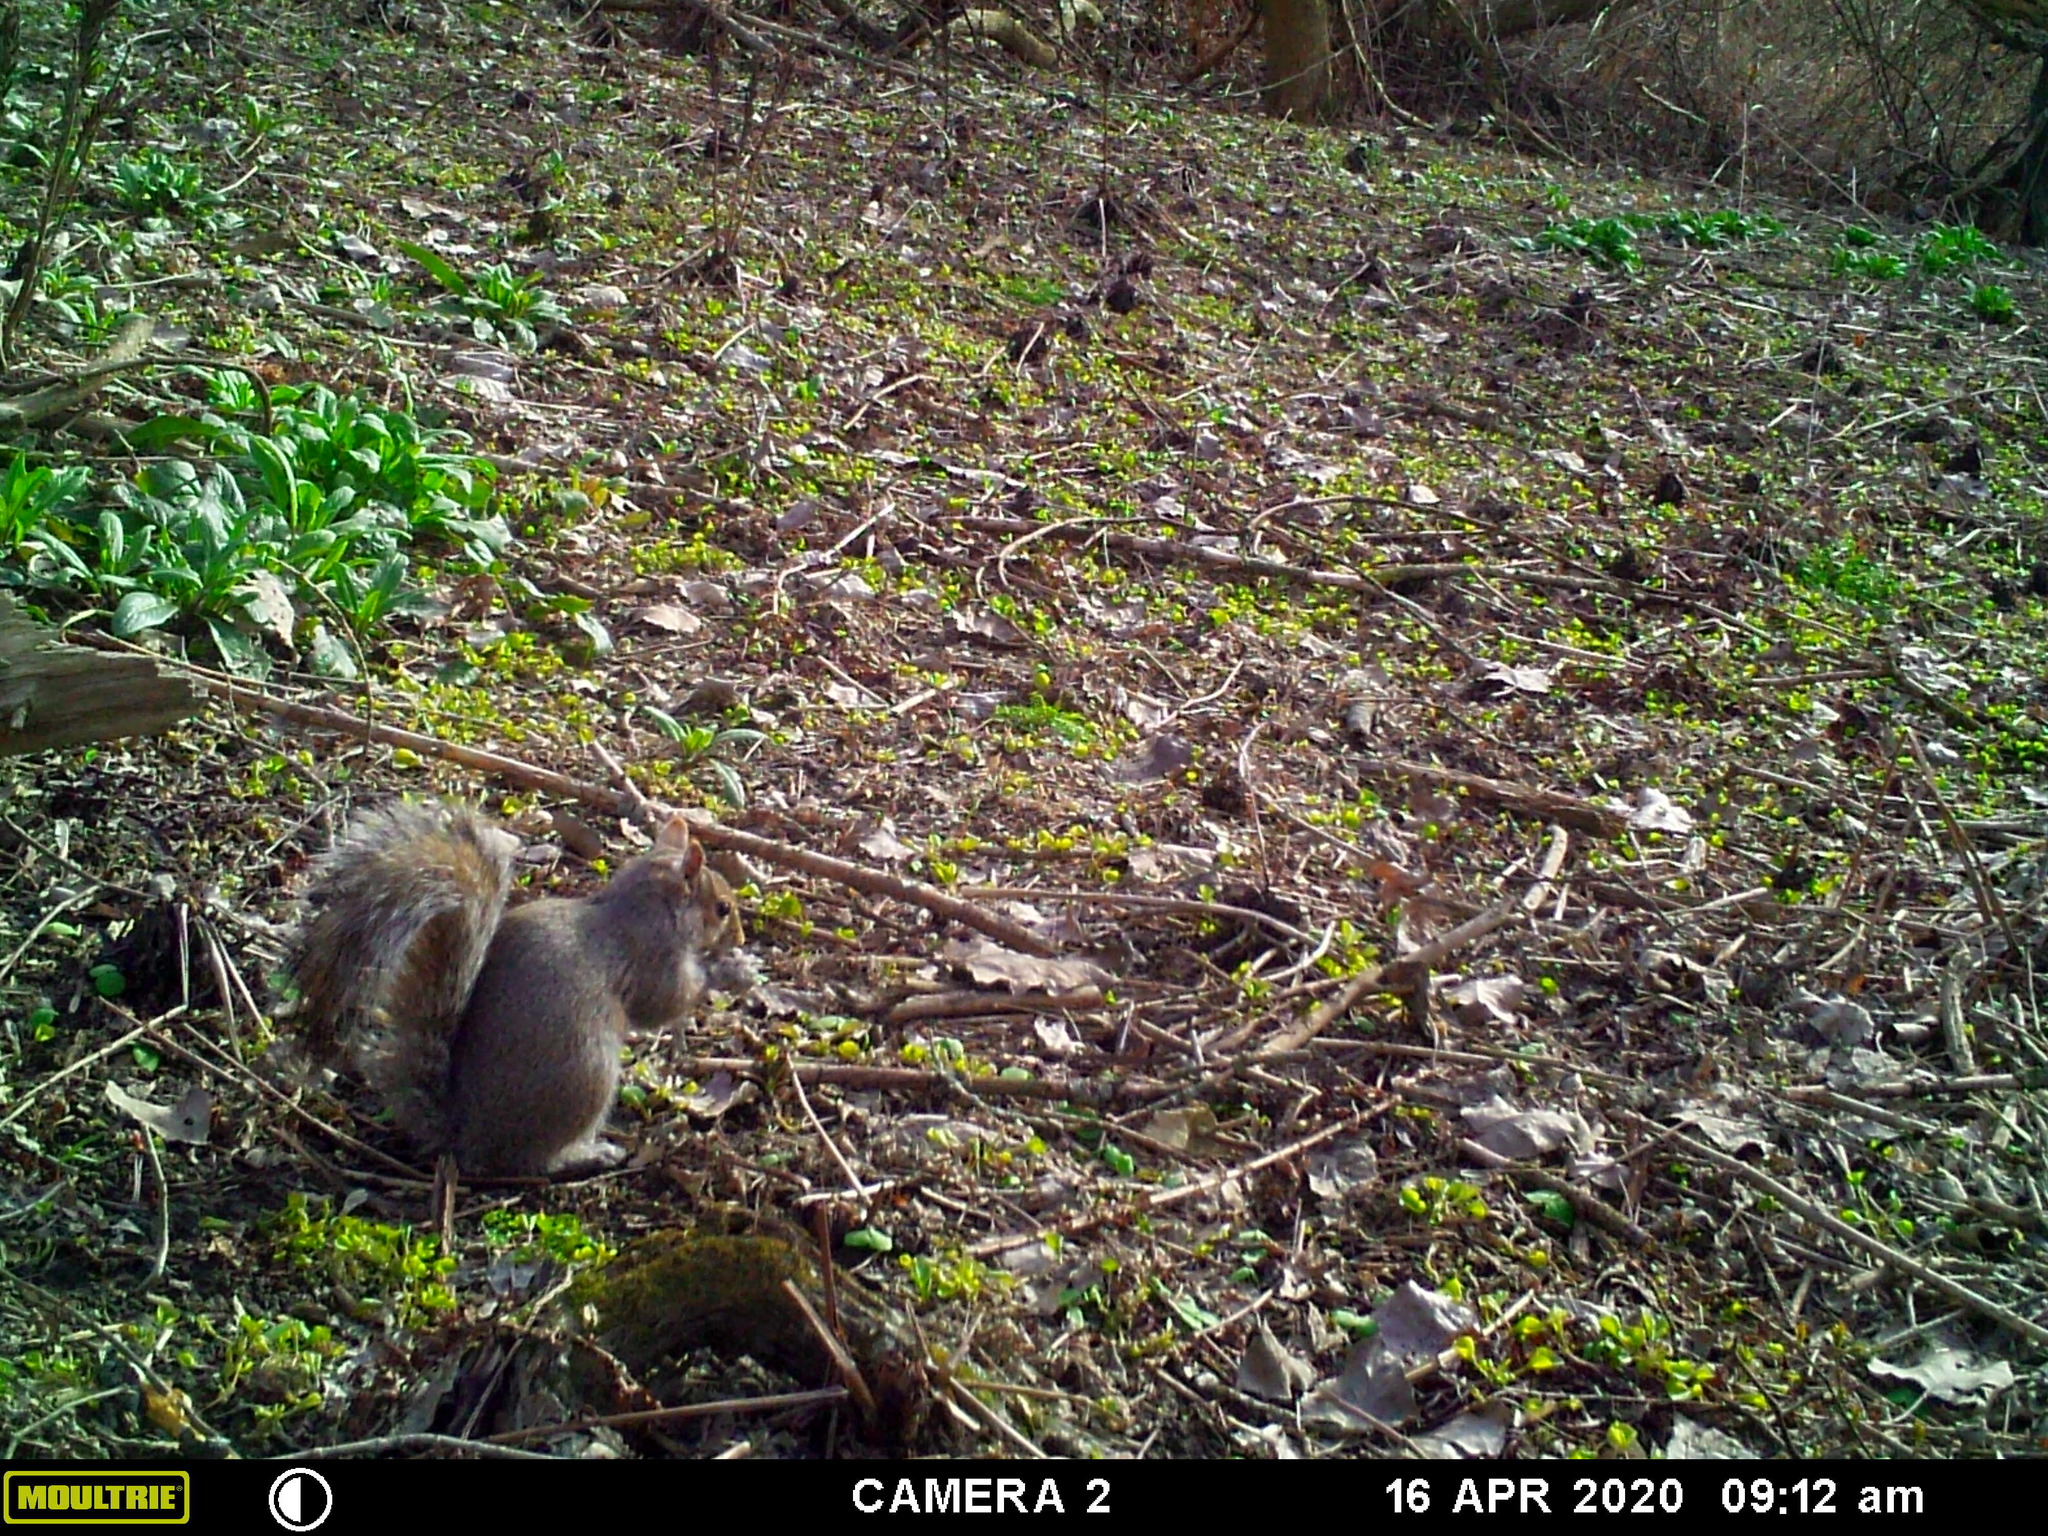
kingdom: Animalia
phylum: Chordata
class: Mammalia
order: Rodentia
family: Sciuridae
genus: Sciurus
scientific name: Sciurus carolinensis
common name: Eastern gray squirrel
